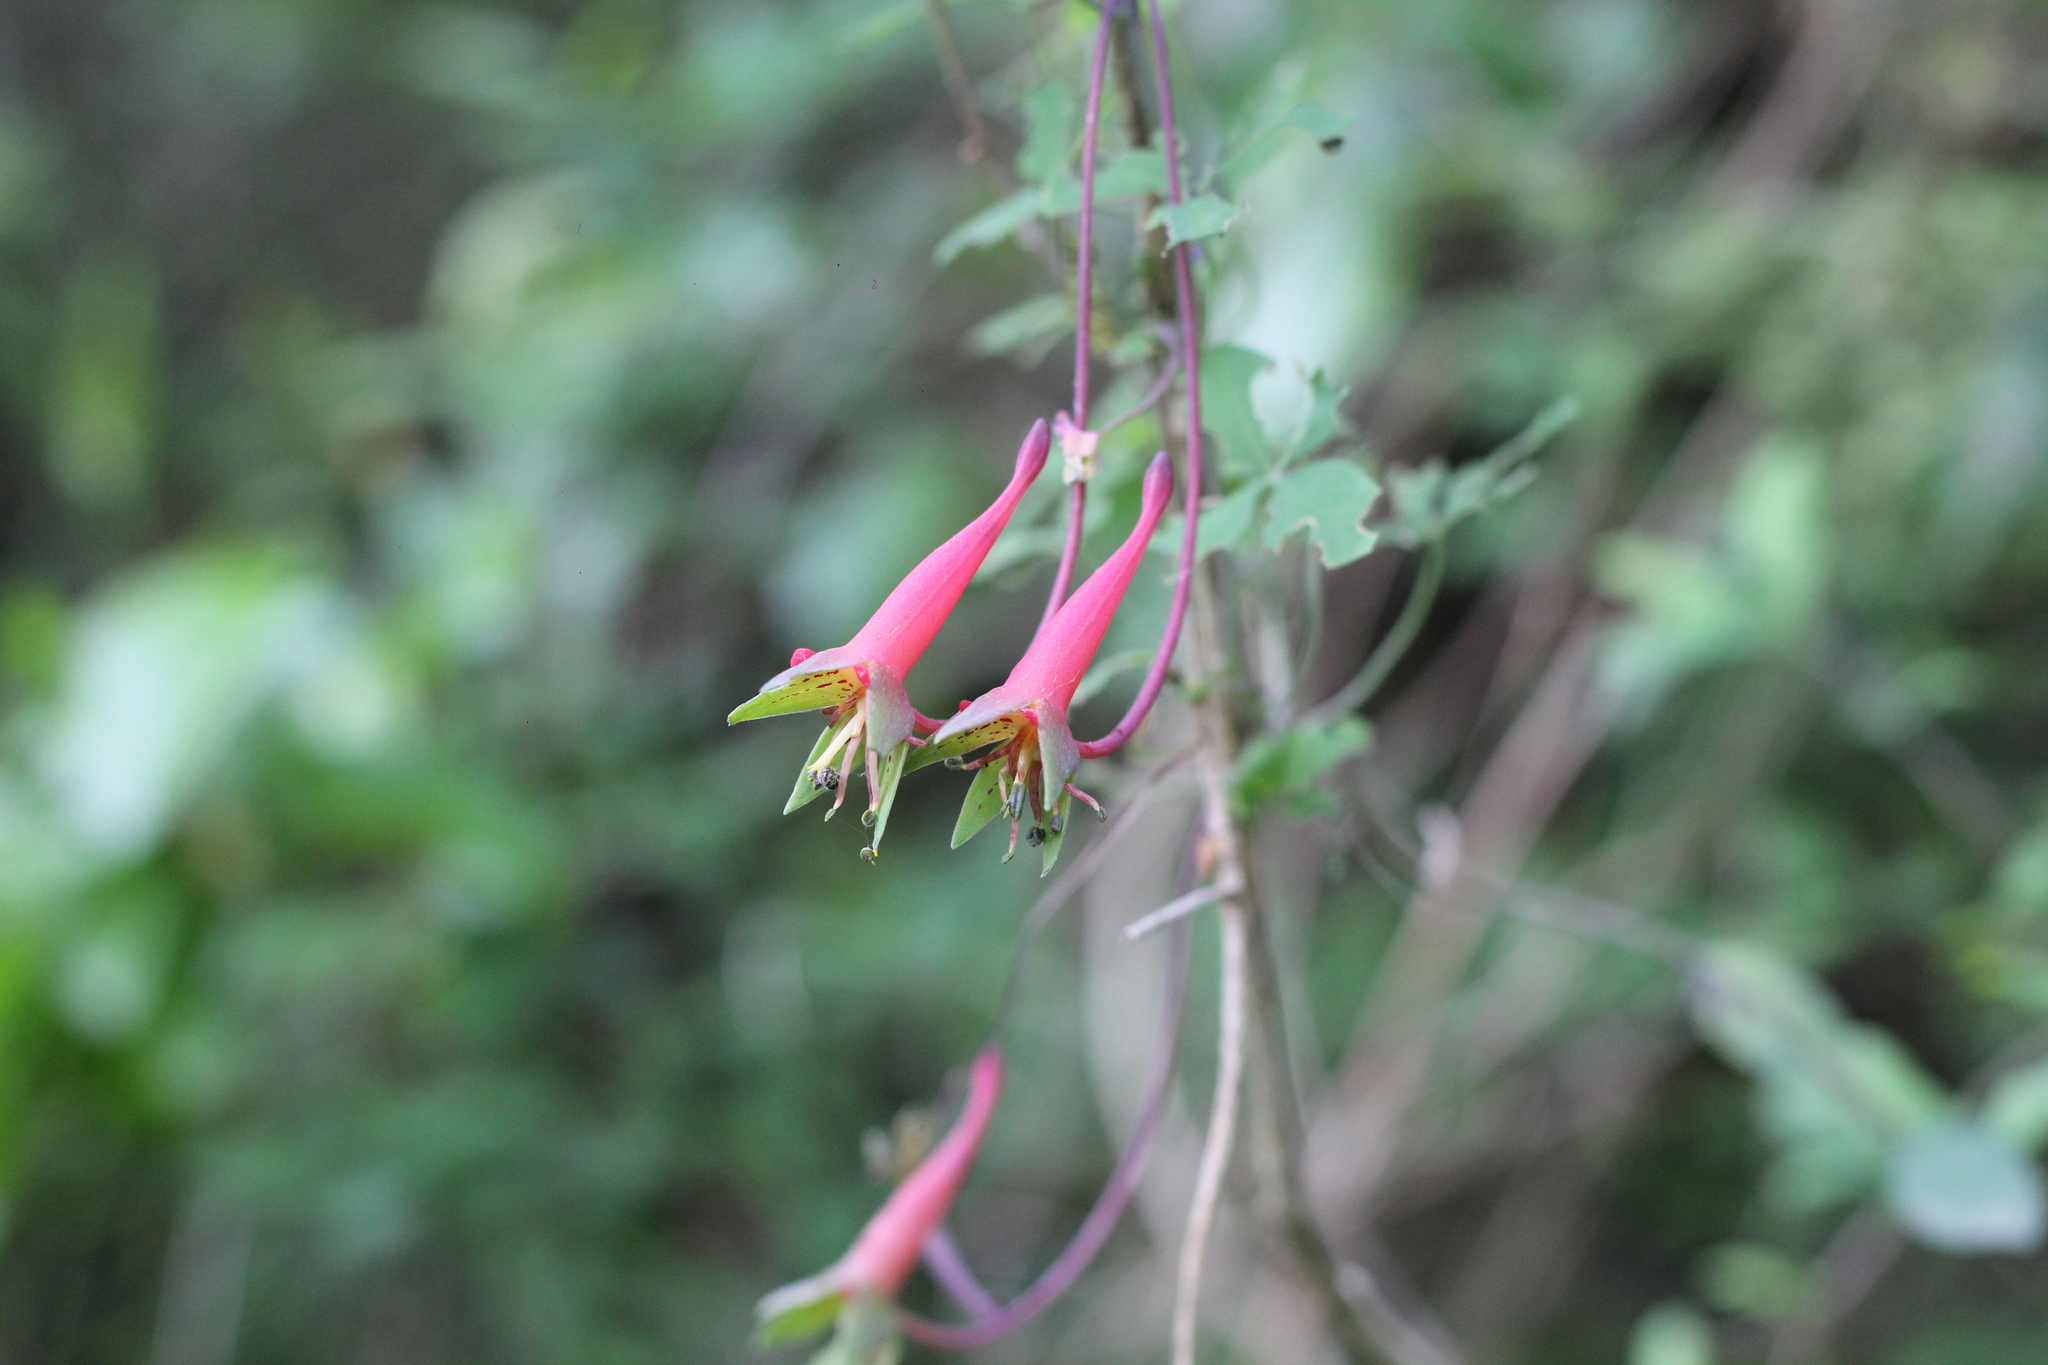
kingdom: Plantae
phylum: Tracheophyta
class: Magnoliopsida
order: Brassicales
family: Tropaeolaceae
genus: Tropaeolum
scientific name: Tropaeolum pentaphyllum
